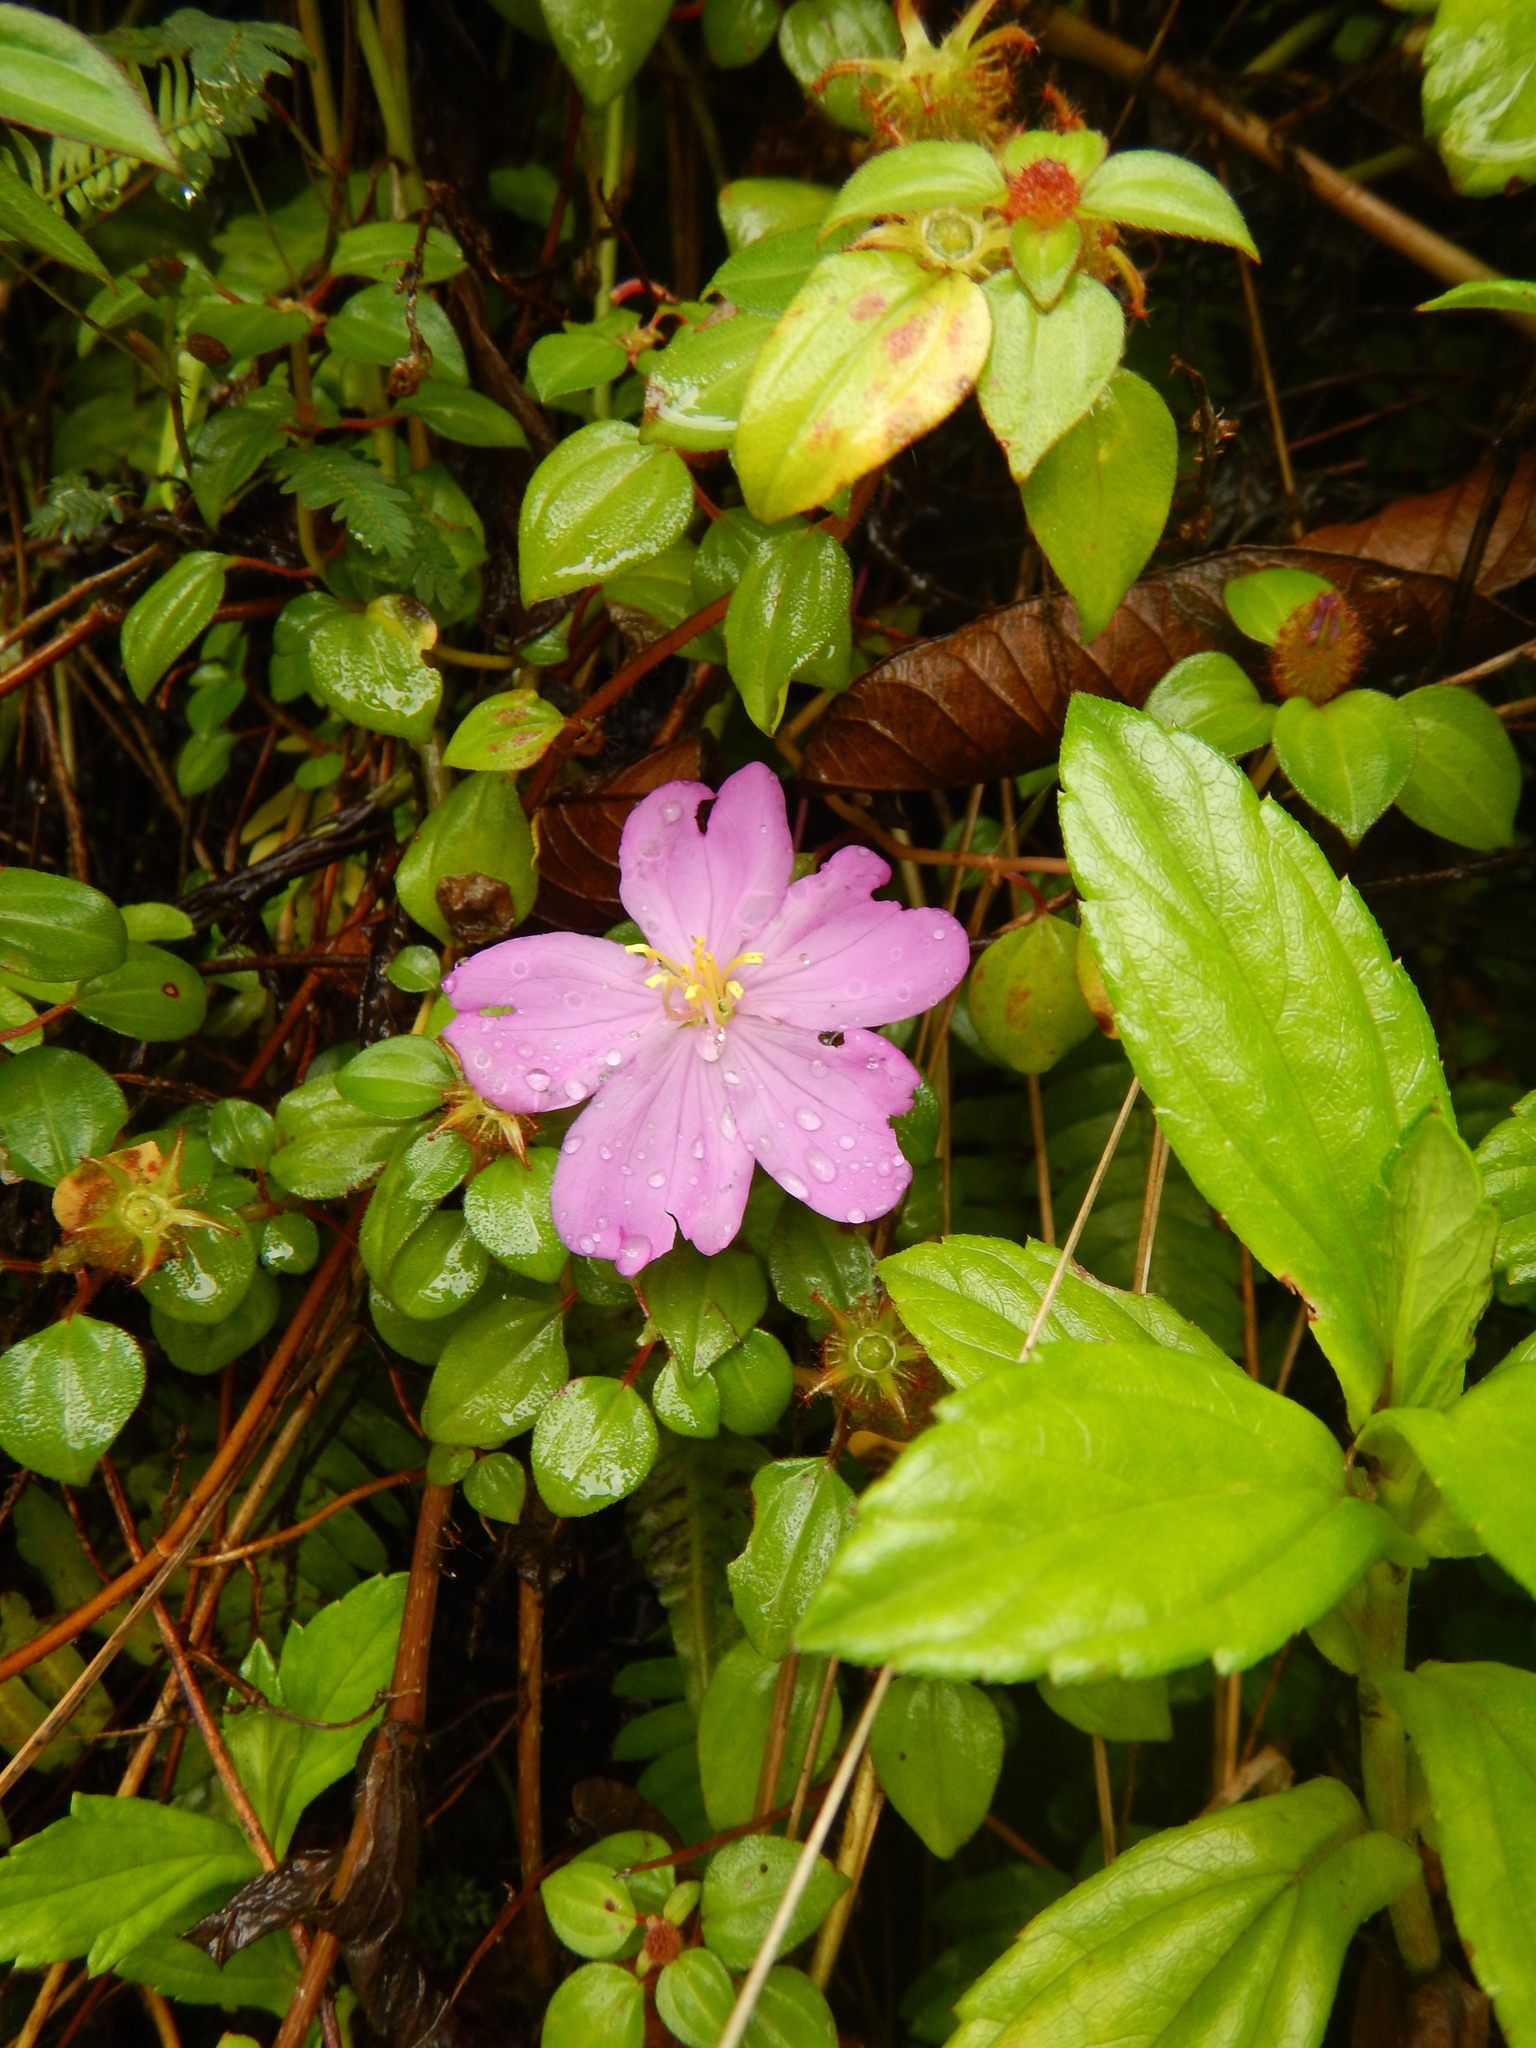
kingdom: Plantae
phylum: Tracheophyta
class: Magnoliopsida
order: Myrtales
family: Melastomataceae
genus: Heterotis
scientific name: Heterotis rotundifolia
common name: Pinklady
